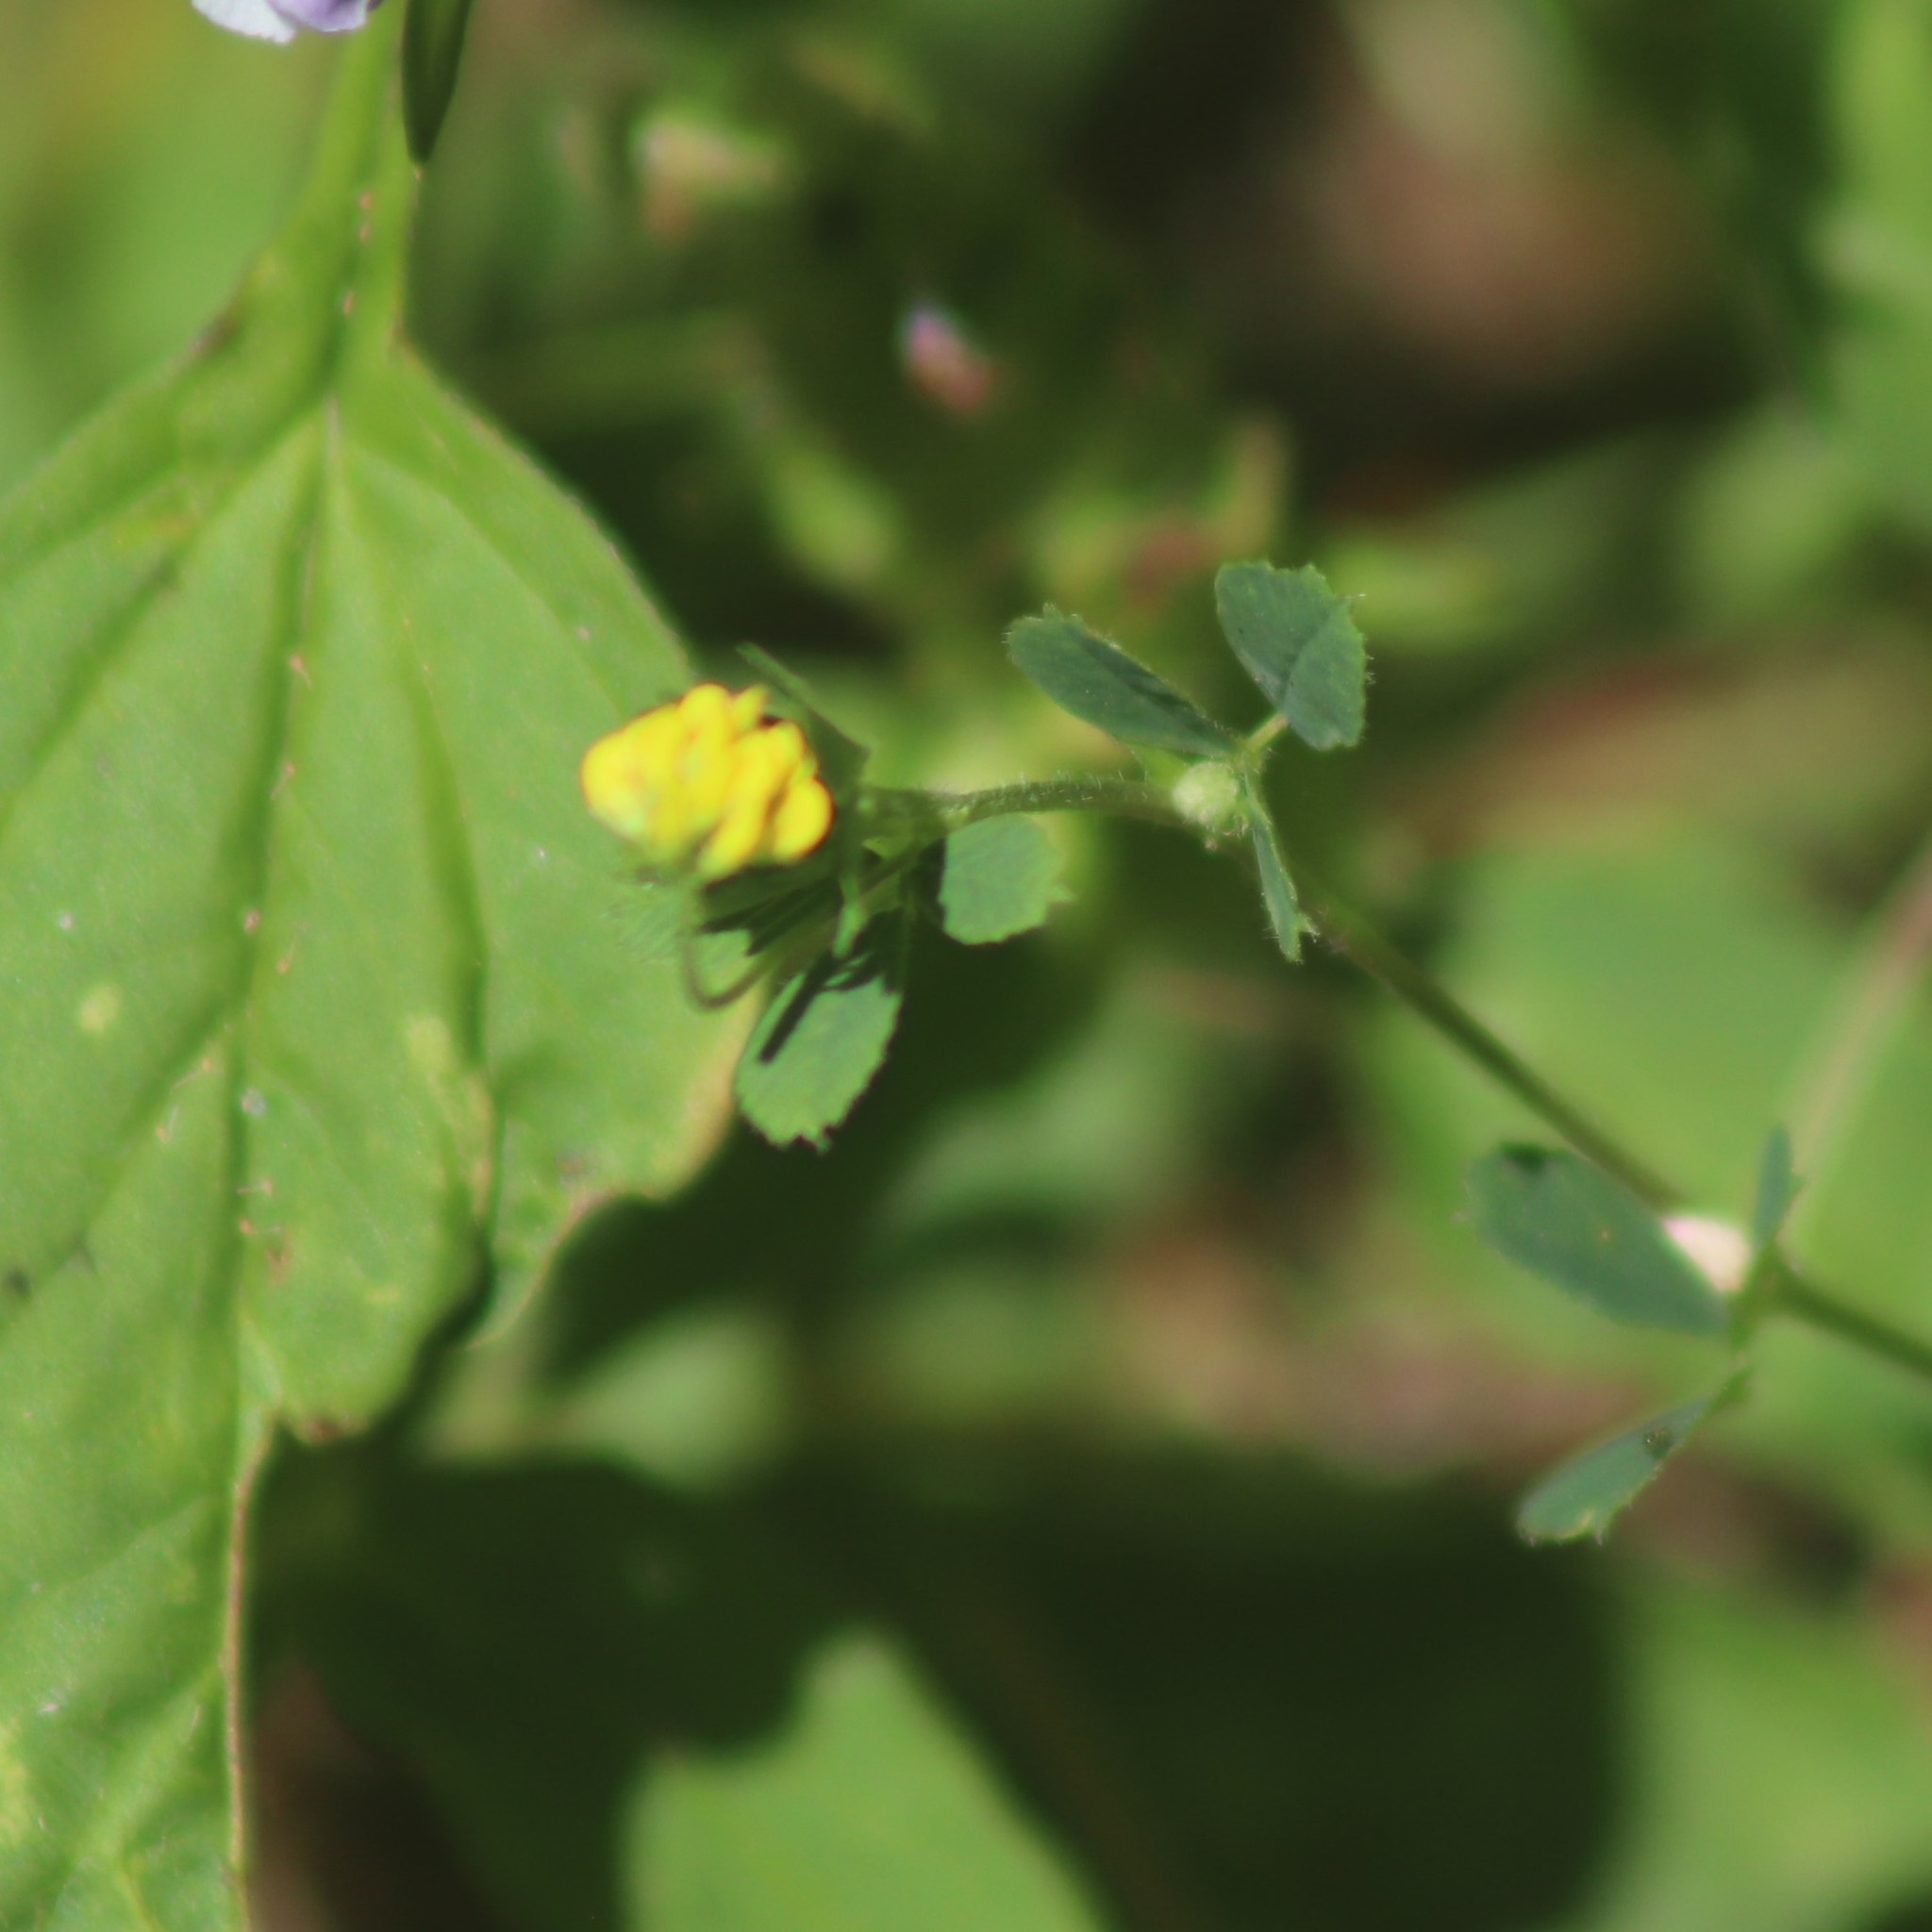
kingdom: Plantae
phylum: Tracheophyta
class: Magnoliopsida
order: Fabales
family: Fabaceae
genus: Medicago
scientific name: Medicago lupulina
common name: Black medick
